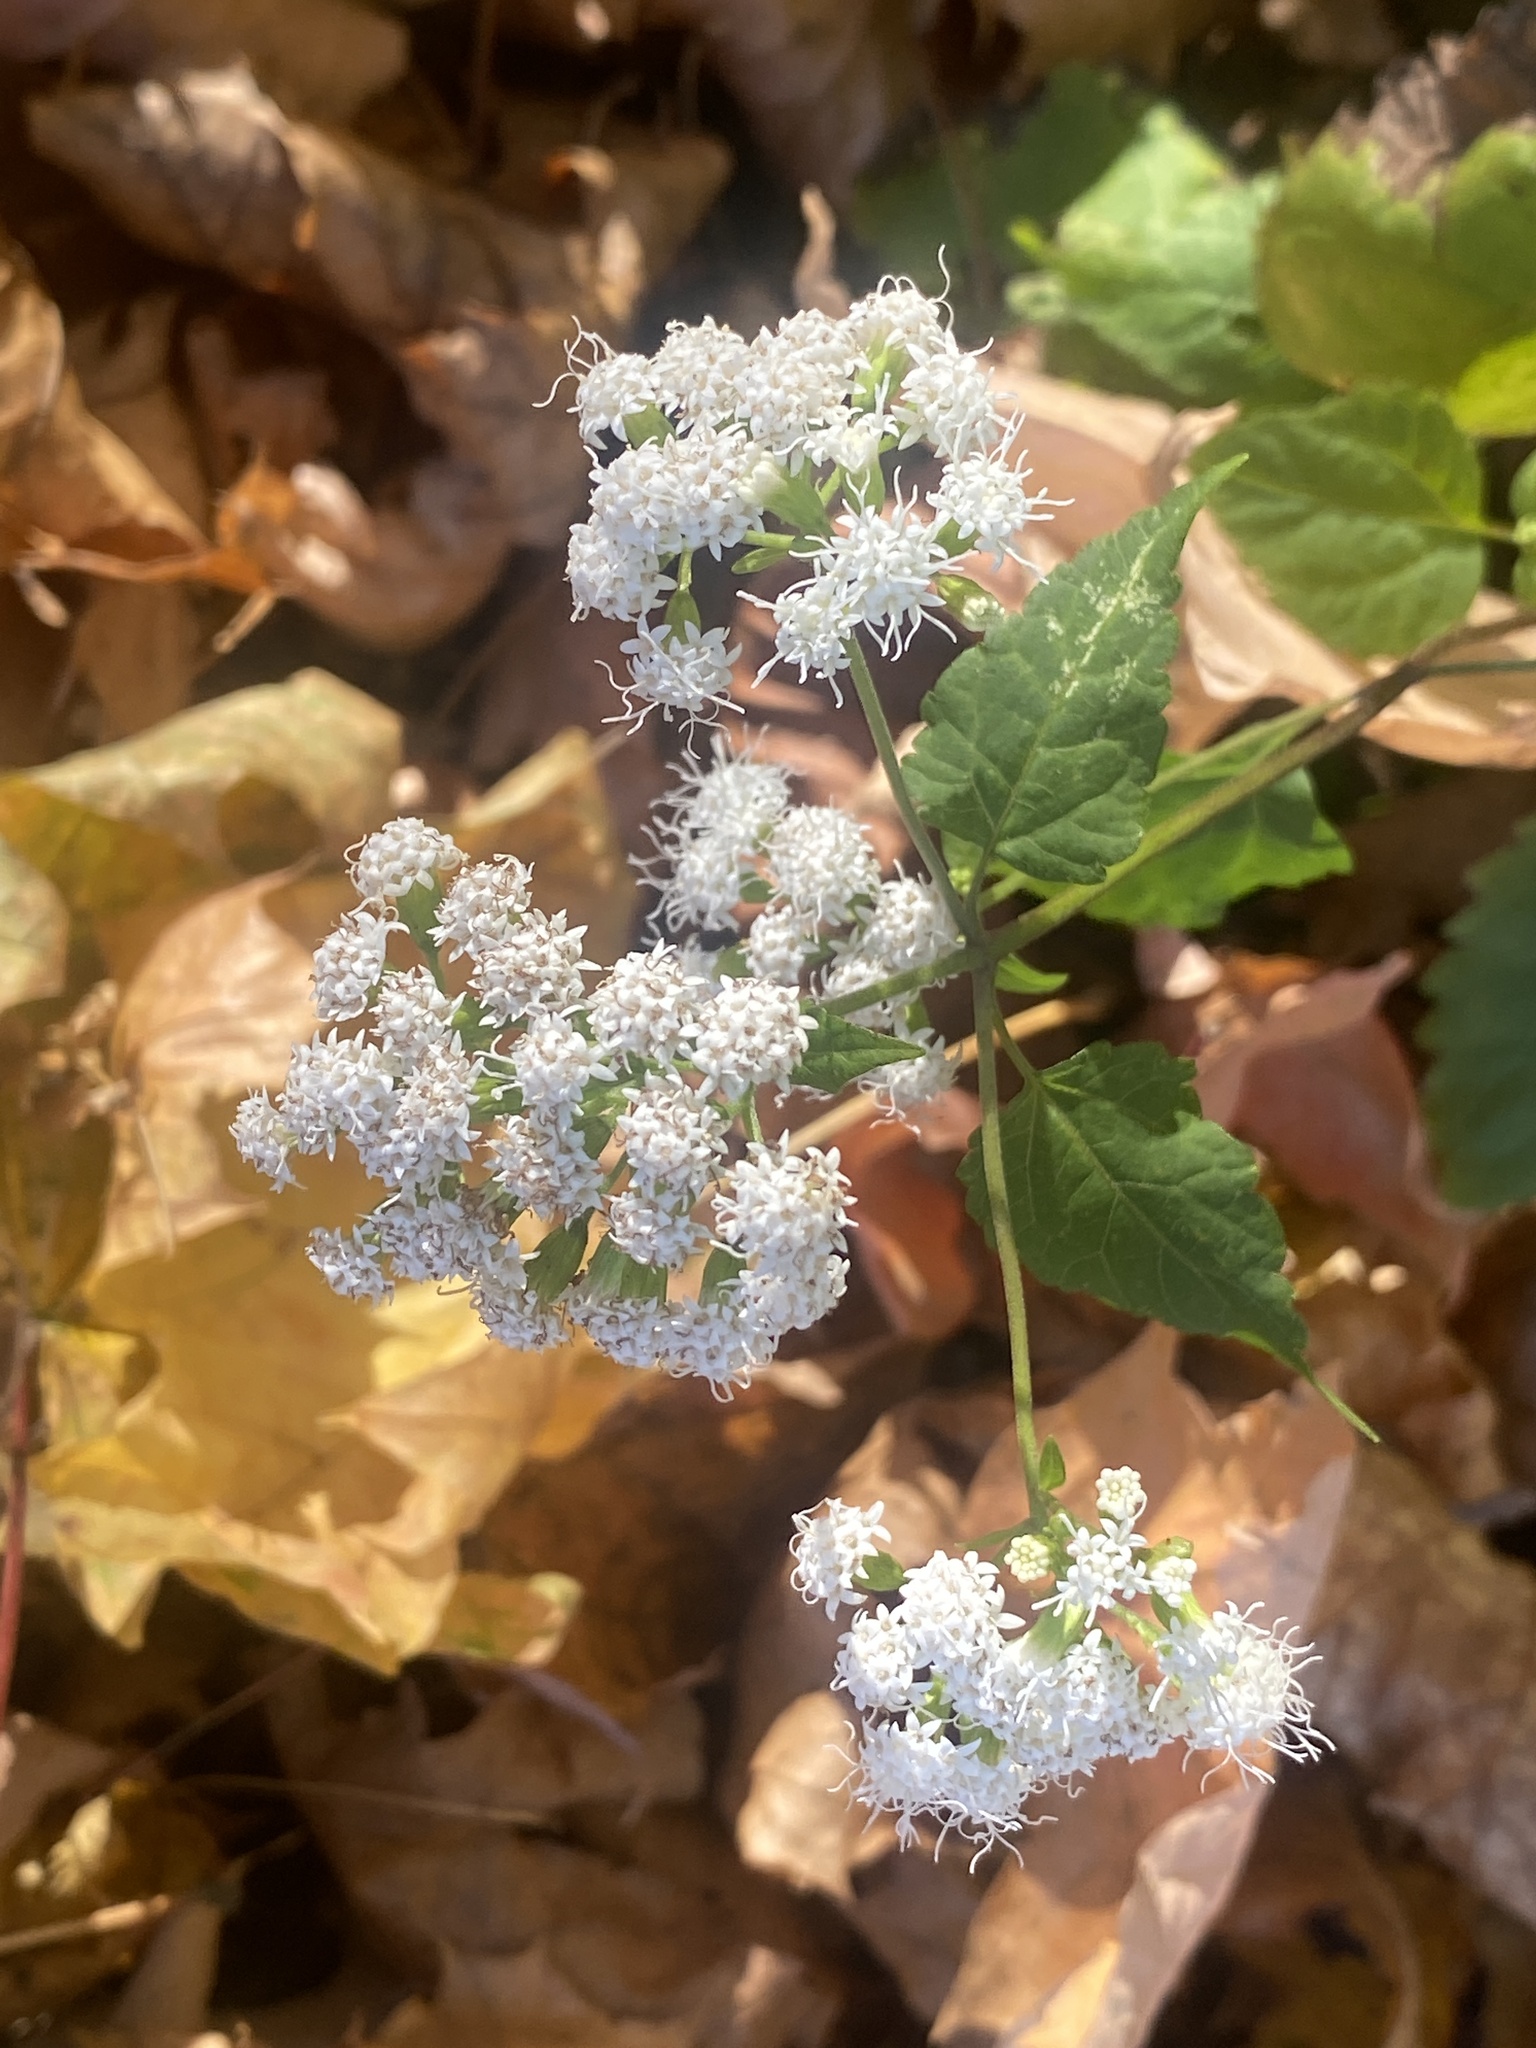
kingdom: Plantae
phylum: Tracheophyta
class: Magnoliopsida
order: Asterales
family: Asteraceae
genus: Ageratina
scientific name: Ageratina altissima
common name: White snakeroot
